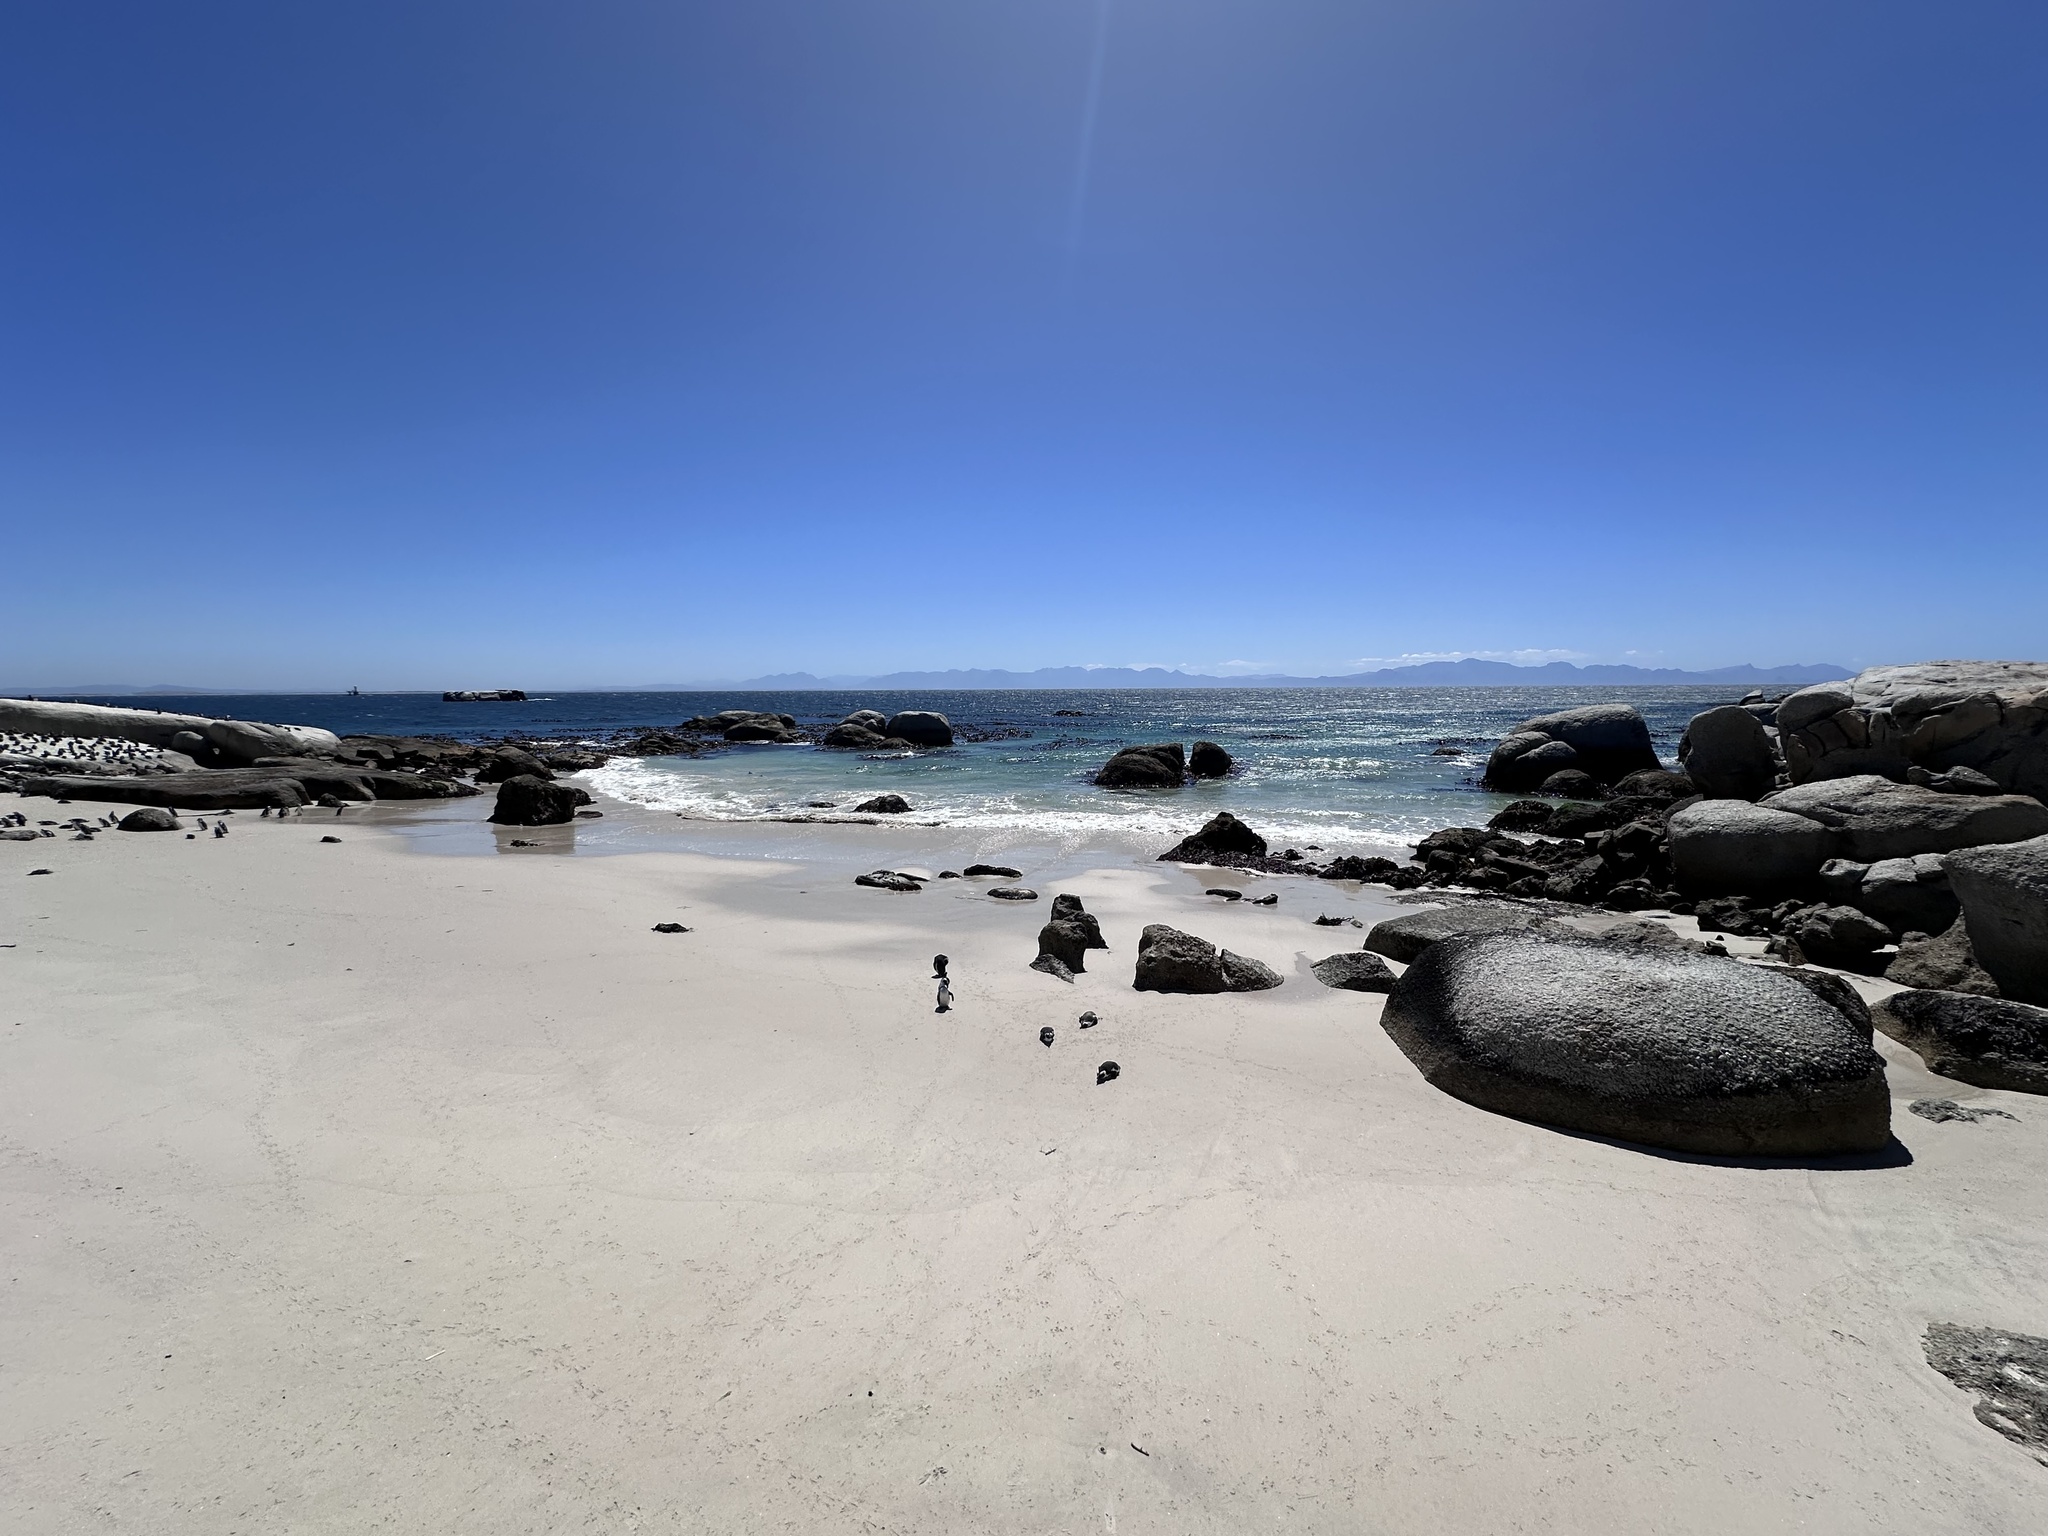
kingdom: Animalia
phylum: Chordata
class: Aves
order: Sphenisciformes
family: Spheniscidae
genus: Spheniscus
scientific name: Spheniscus demersus
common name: African penguin
